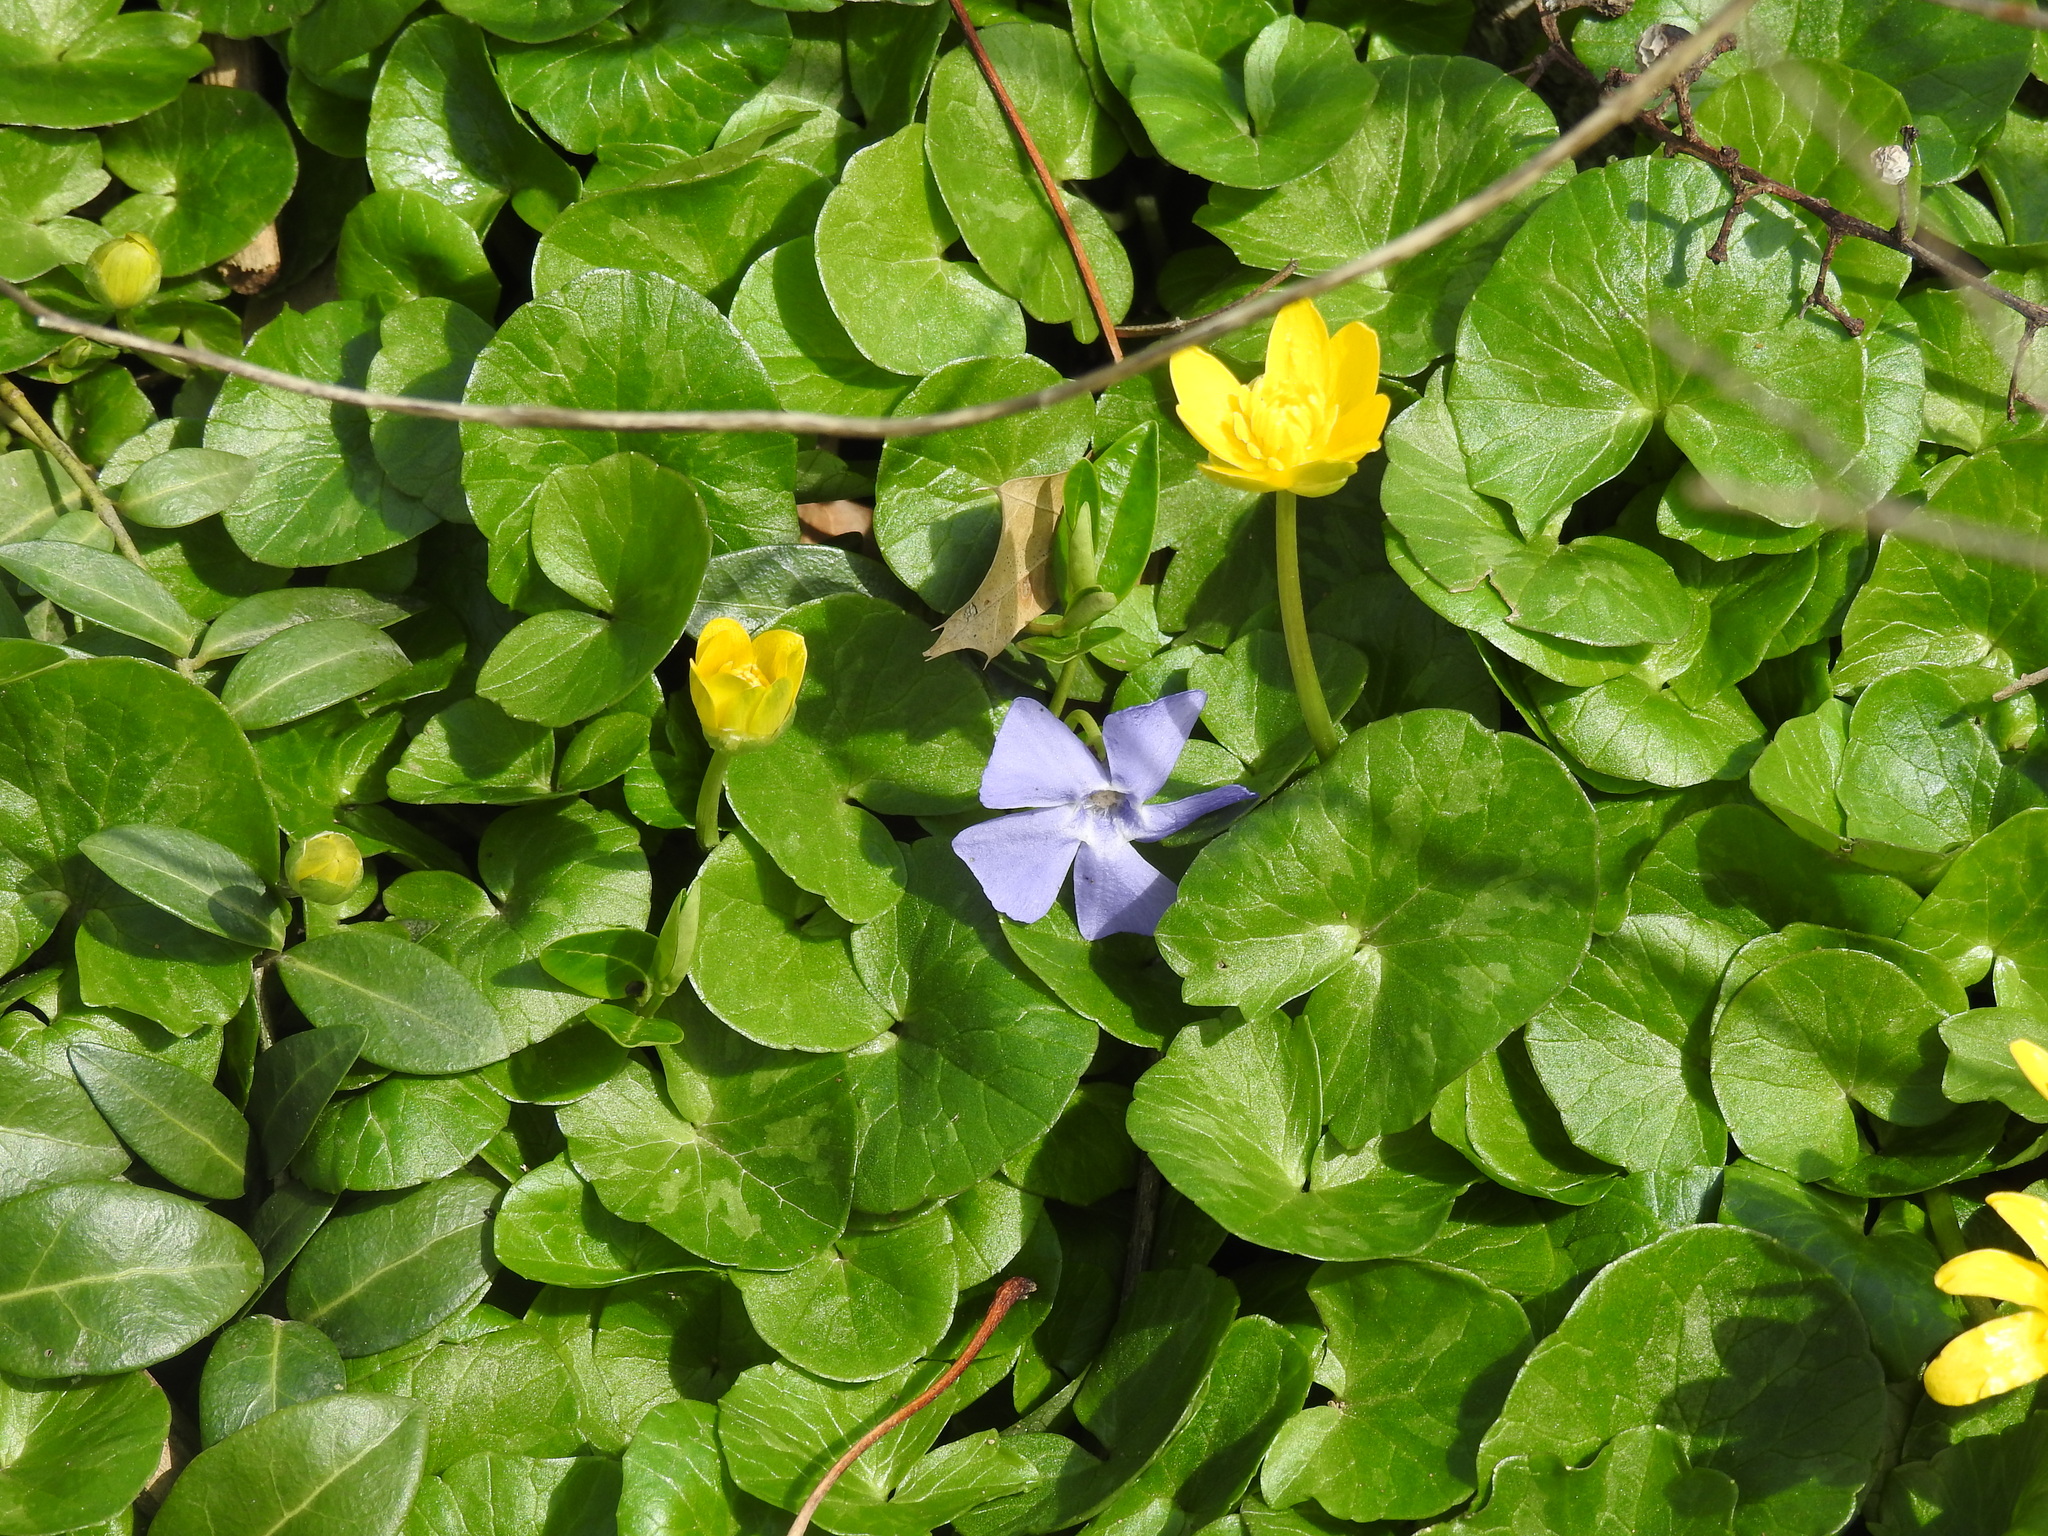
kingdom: Plantae
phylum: Tracheophyta
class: Magnoliopsida
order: Gentianales
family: Apocynaceae
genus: Vinca
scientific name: Vinca minor
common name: Lesser periwinkle
